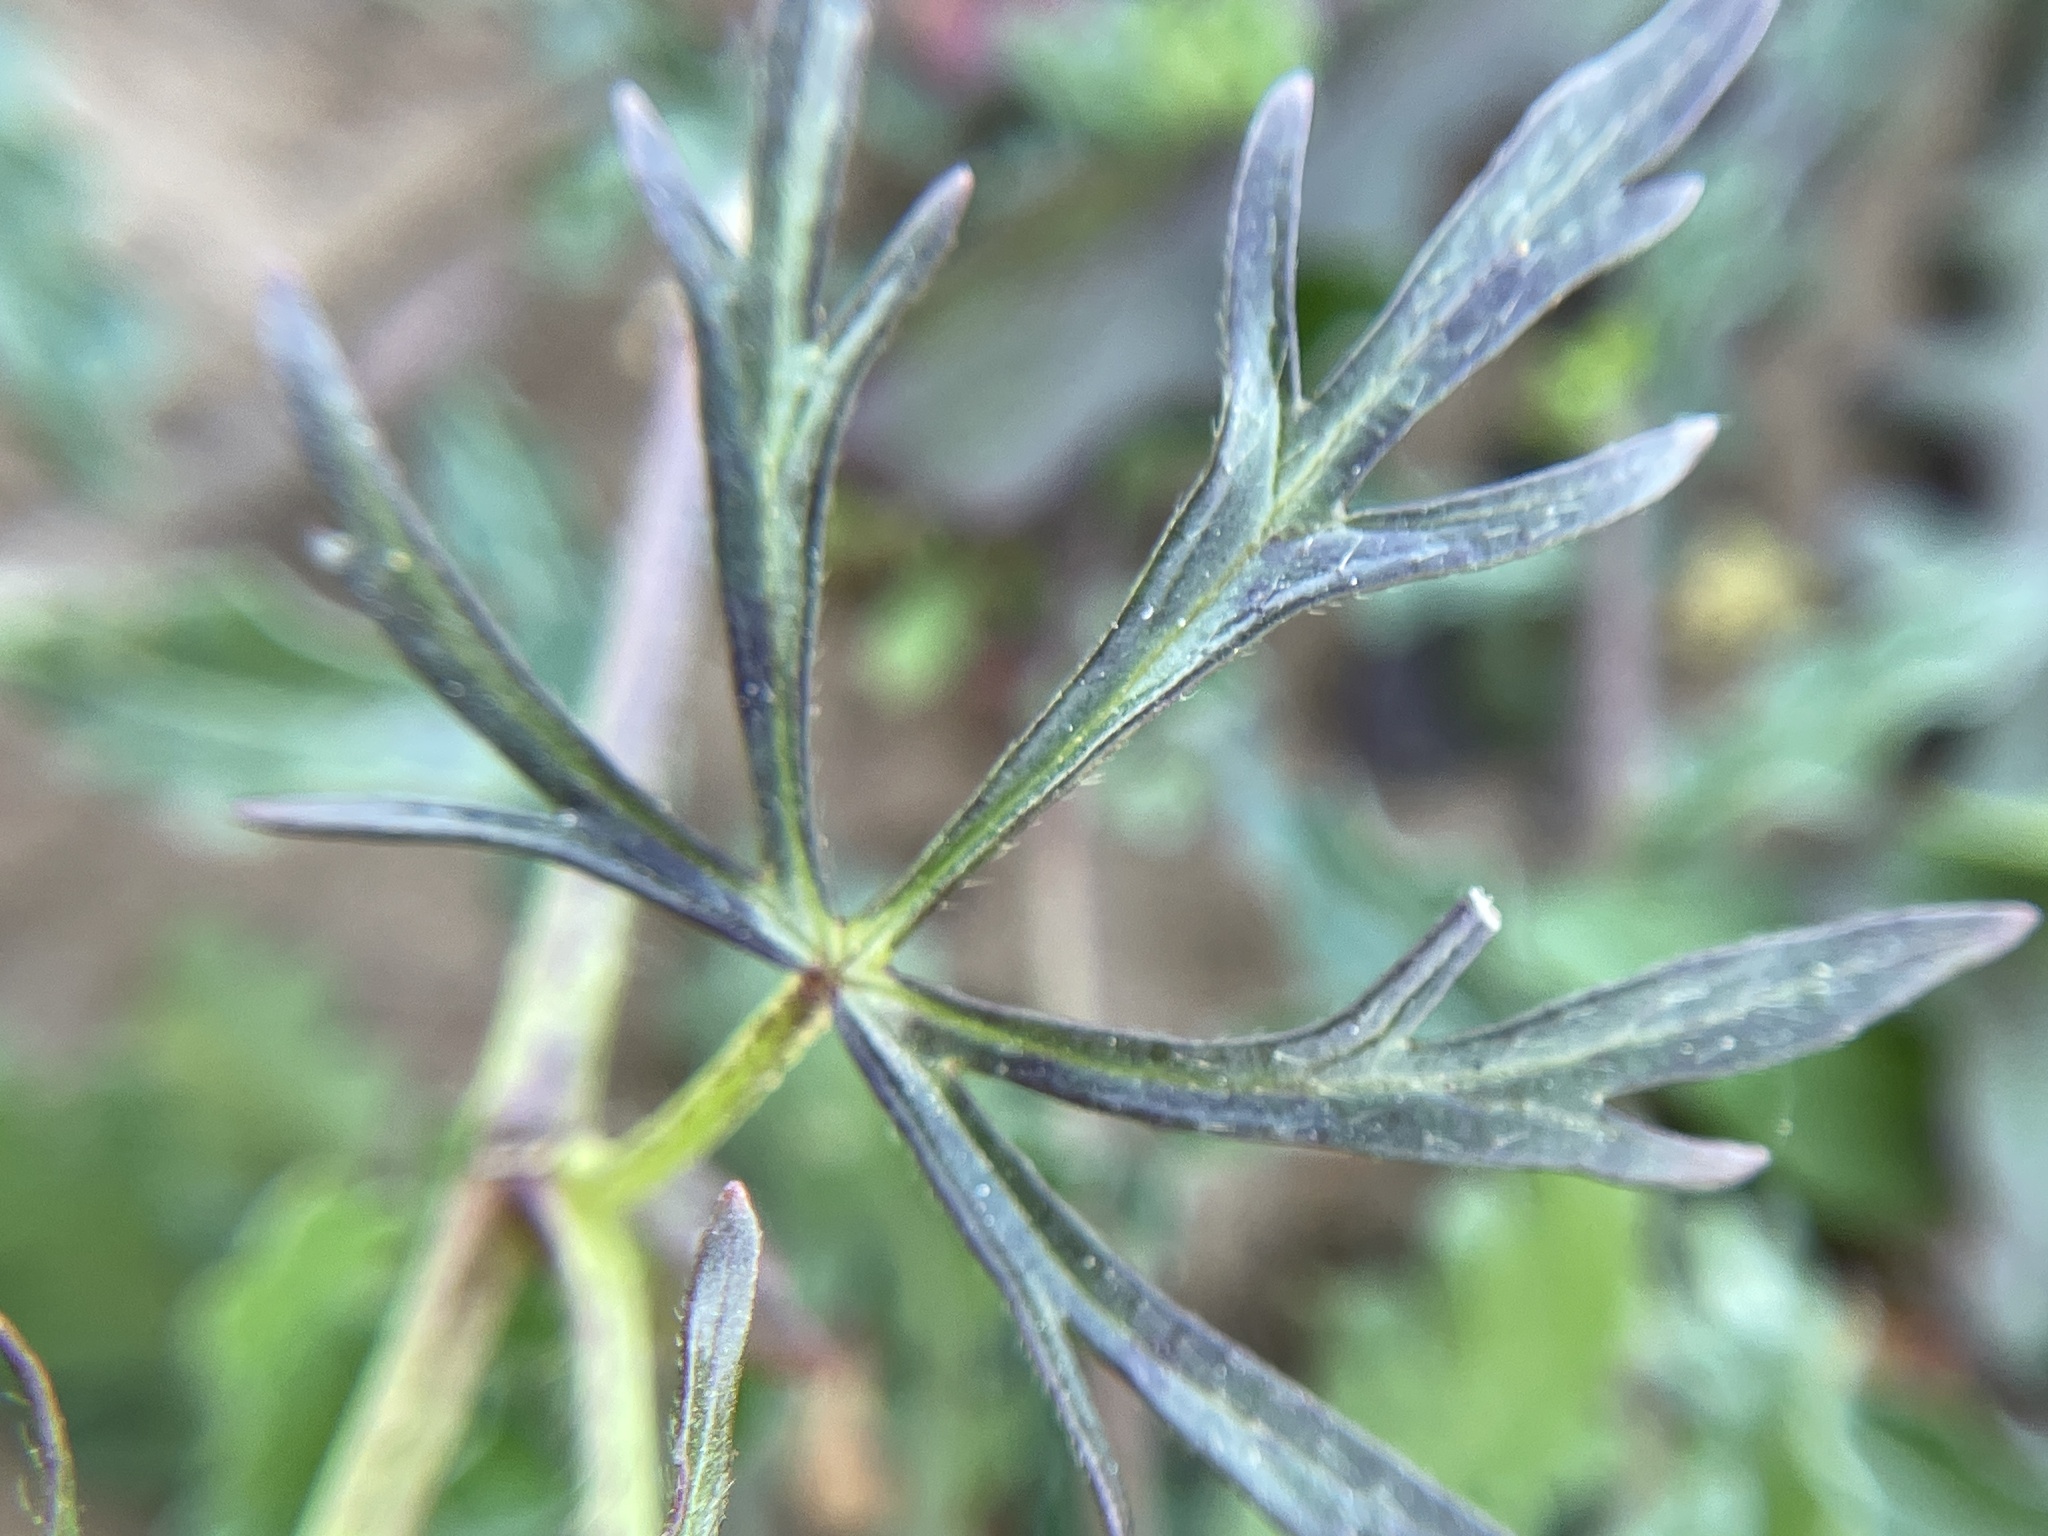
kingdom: Plantae
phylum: Tracheophyta
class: Magnoliopsida
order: Malvales
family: Malvaceae
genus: Callirhoe
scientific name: Callirhoe involucrata
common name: Purple poppy-mallow
